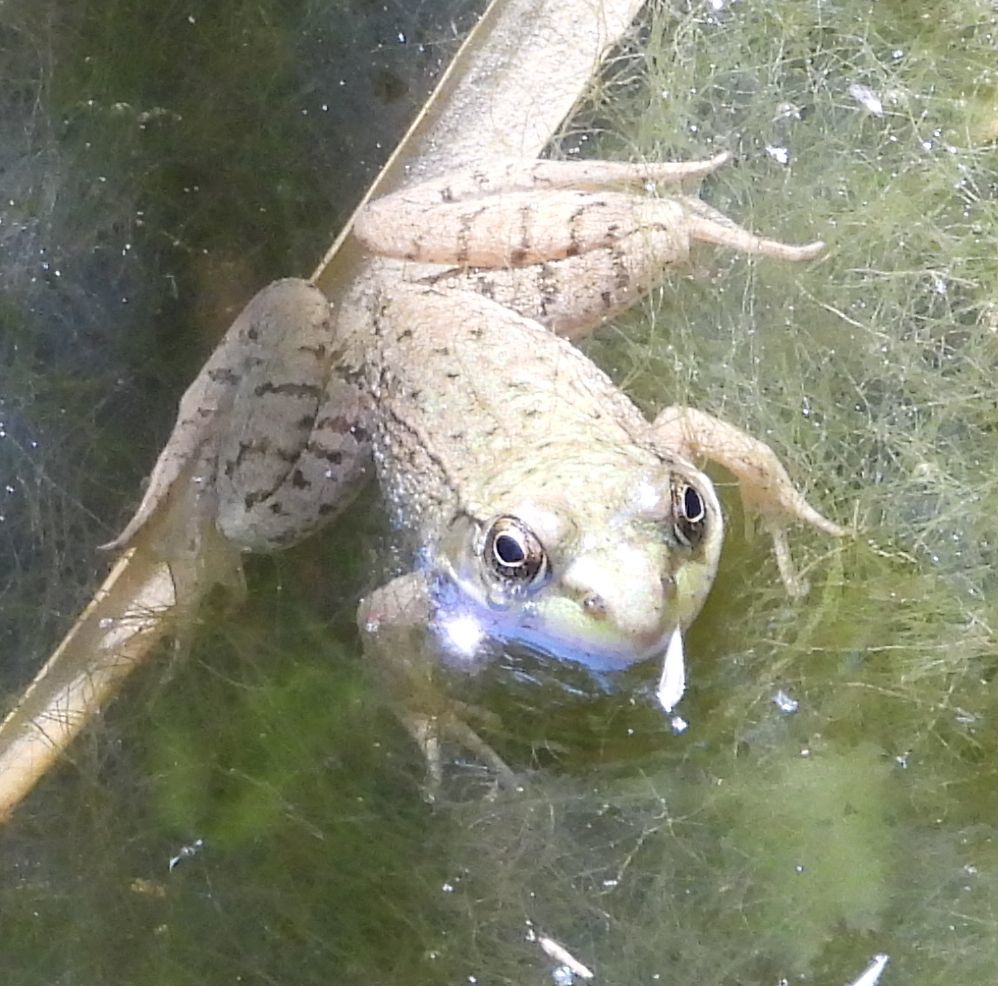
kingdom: Animalia
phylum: Chordata
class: Amphibia
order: Anura
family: Ranidae
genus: Lithobates
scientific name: Lithobates clamitans
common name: Green frog
